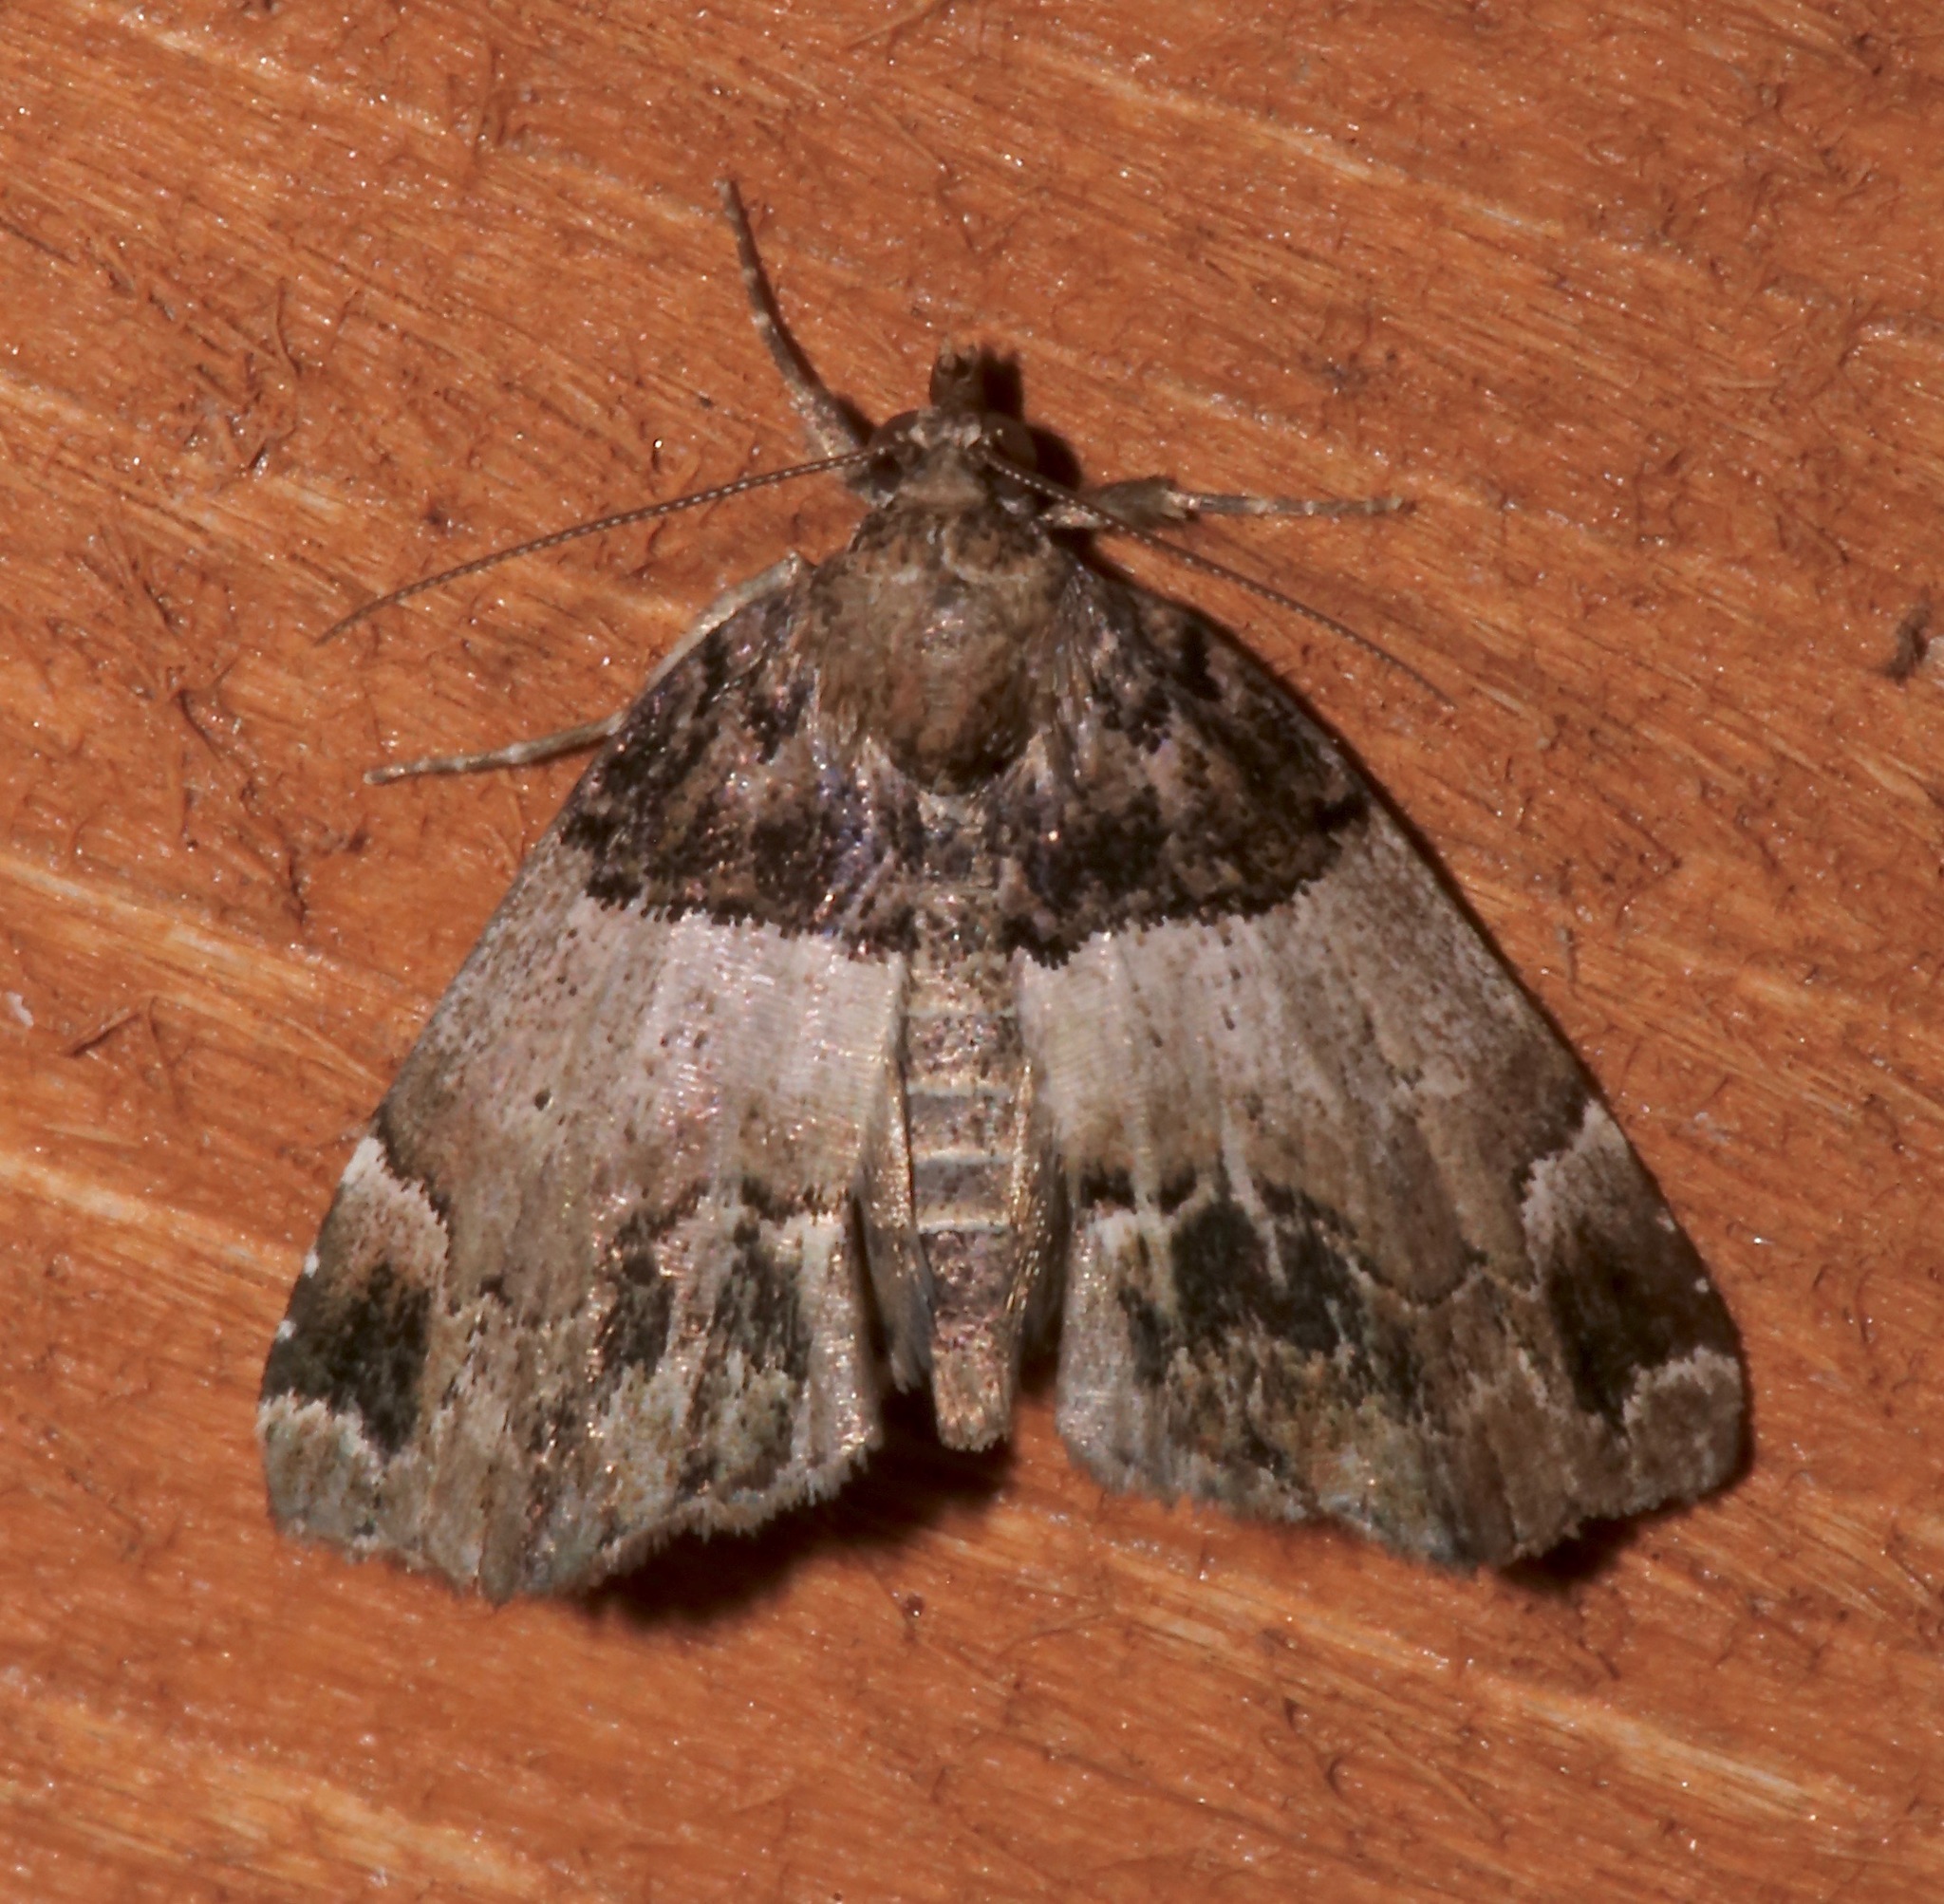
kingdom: Animalia
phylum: Arthropoda
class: Insecta
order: Lepidoptera
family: Erebidae
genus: Cutina
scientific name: Cutina distincta
